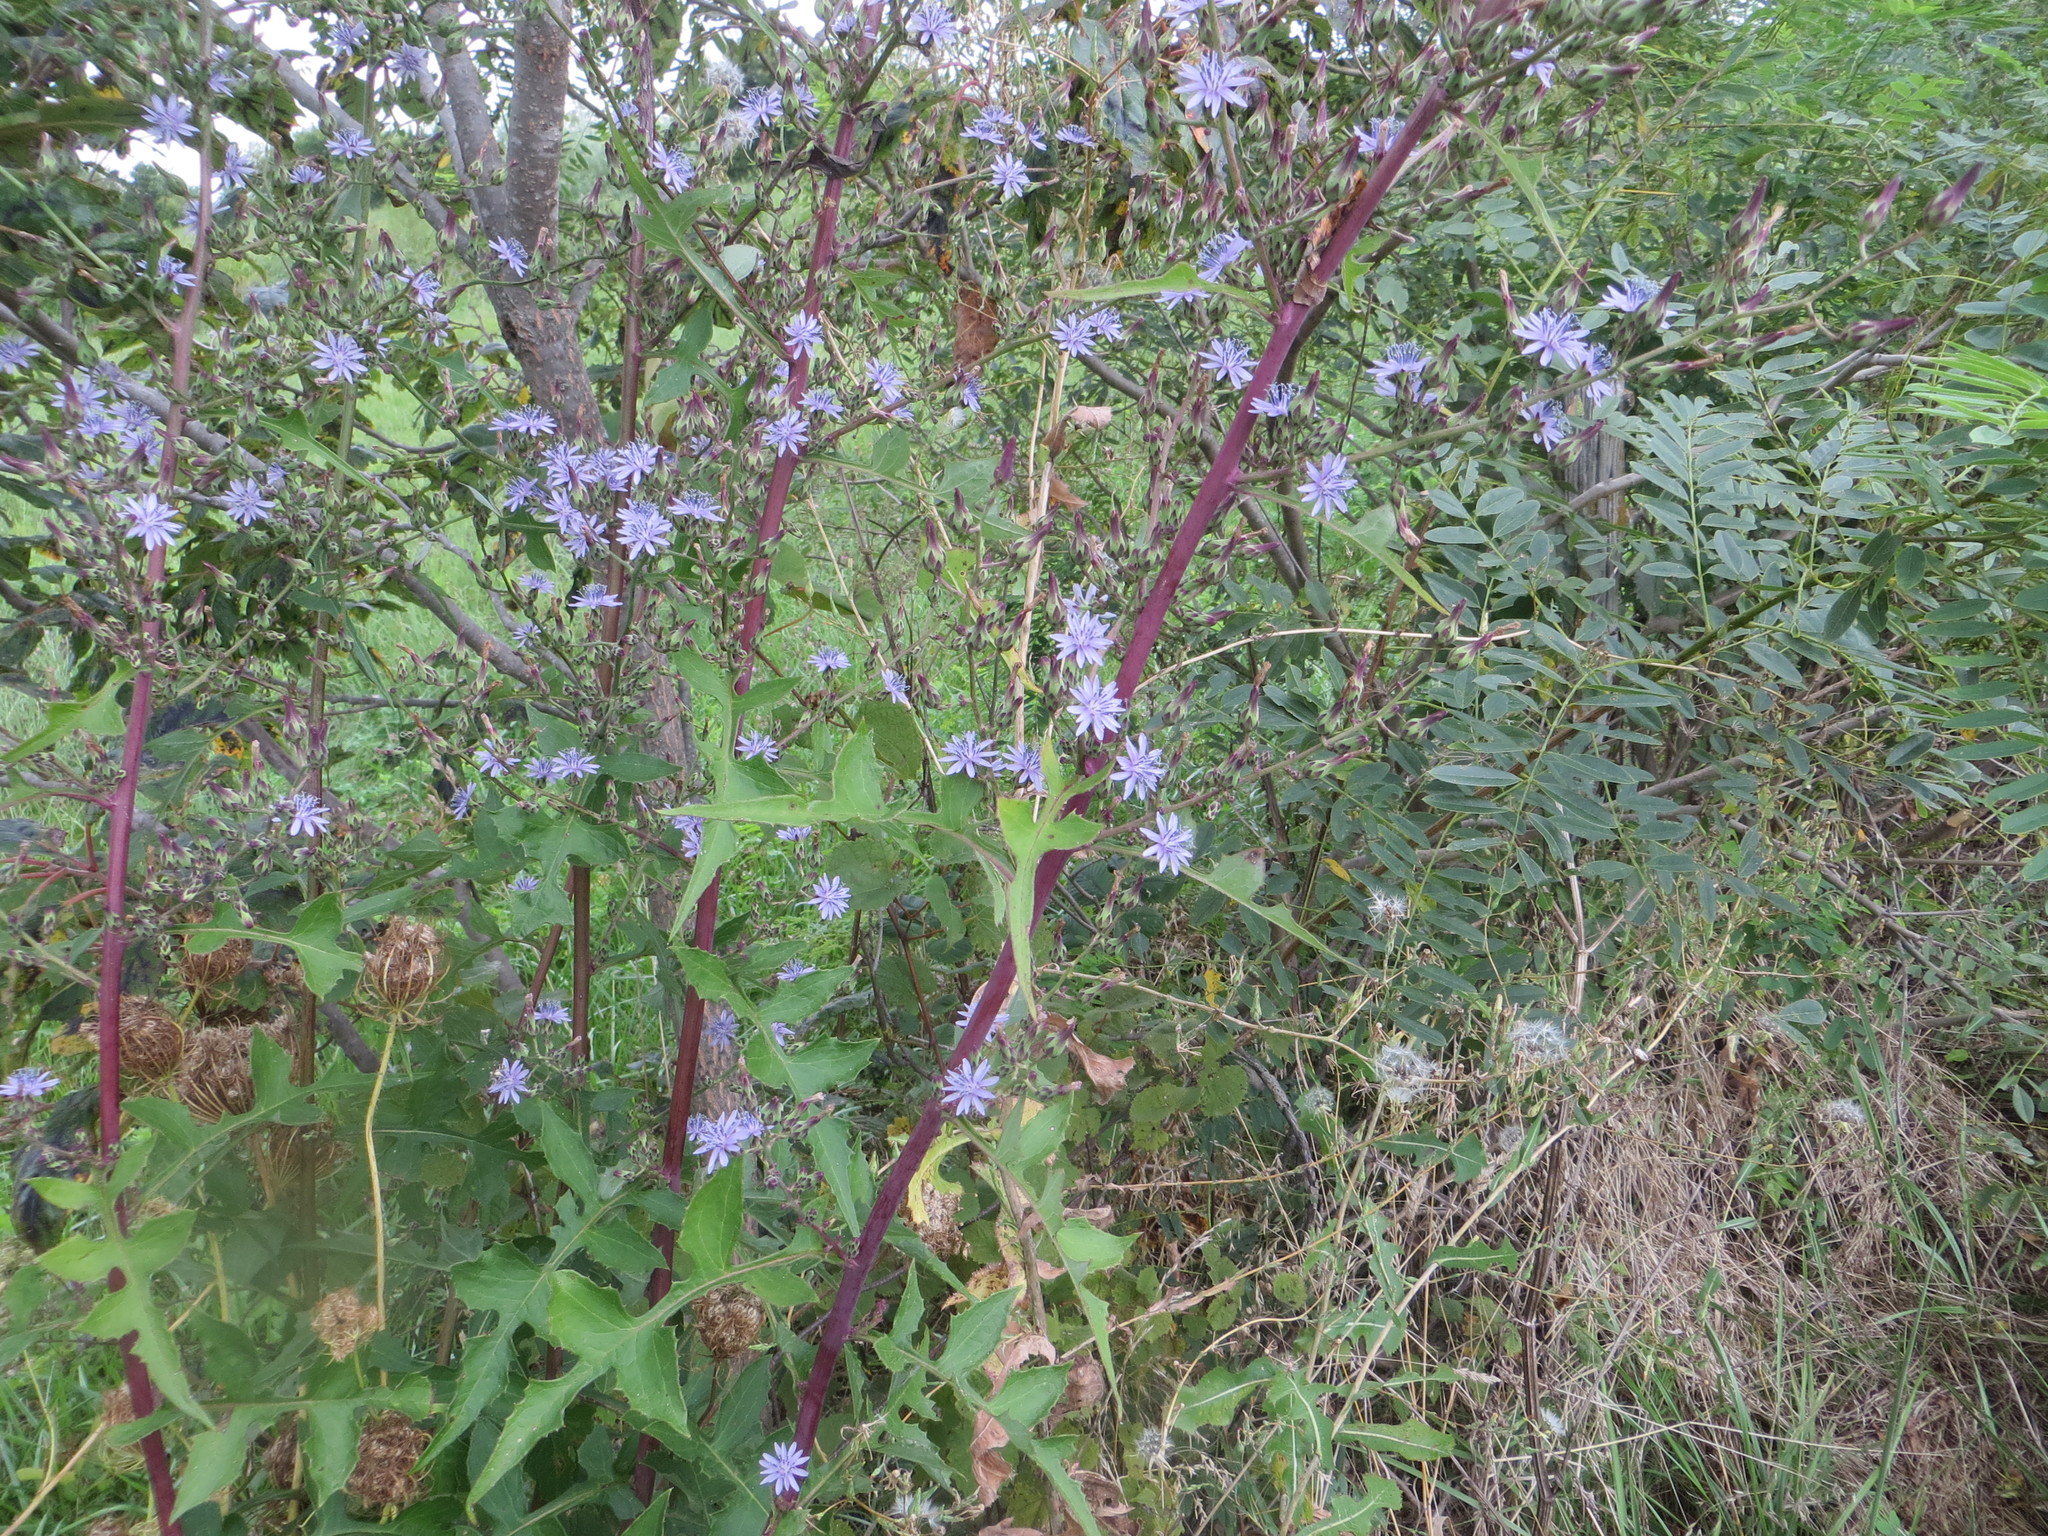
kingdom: Plantae
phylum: Tracheophyta
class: Magnoliopsida
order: Asterales
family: Asteraceae
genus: Lactuca
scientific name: Lactuca floridana
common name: Woodland lettuce
